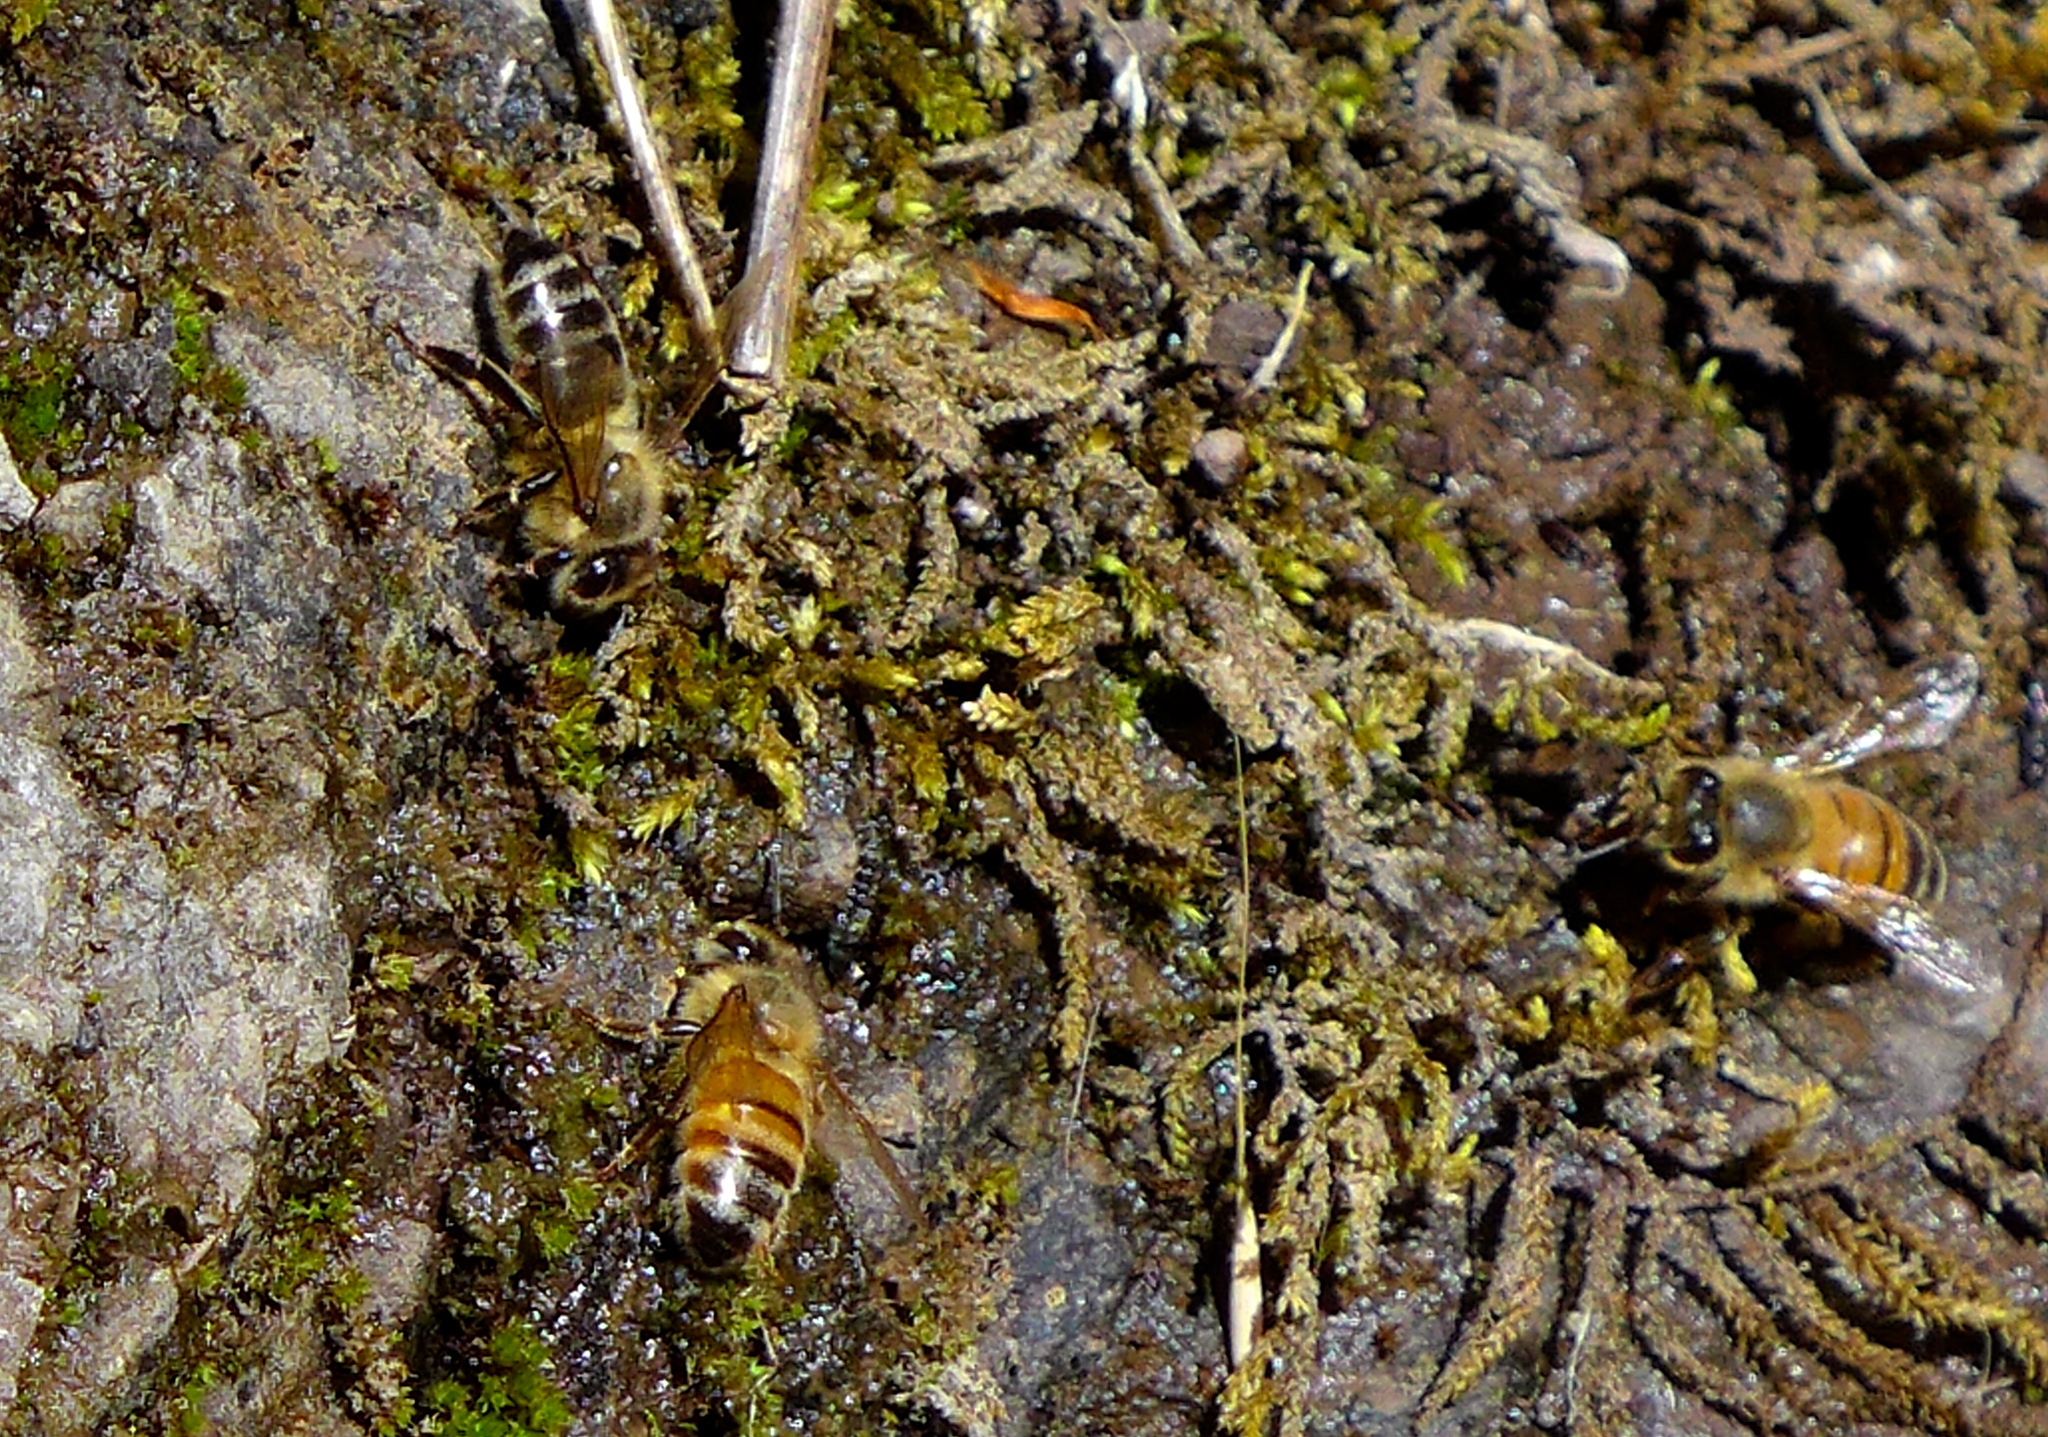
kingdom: Animalia
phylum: Arthropoda
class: Insecta
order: Hymenoptera
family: Apidae
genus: Apis
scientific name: Apis mellifera
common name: Honey bee
